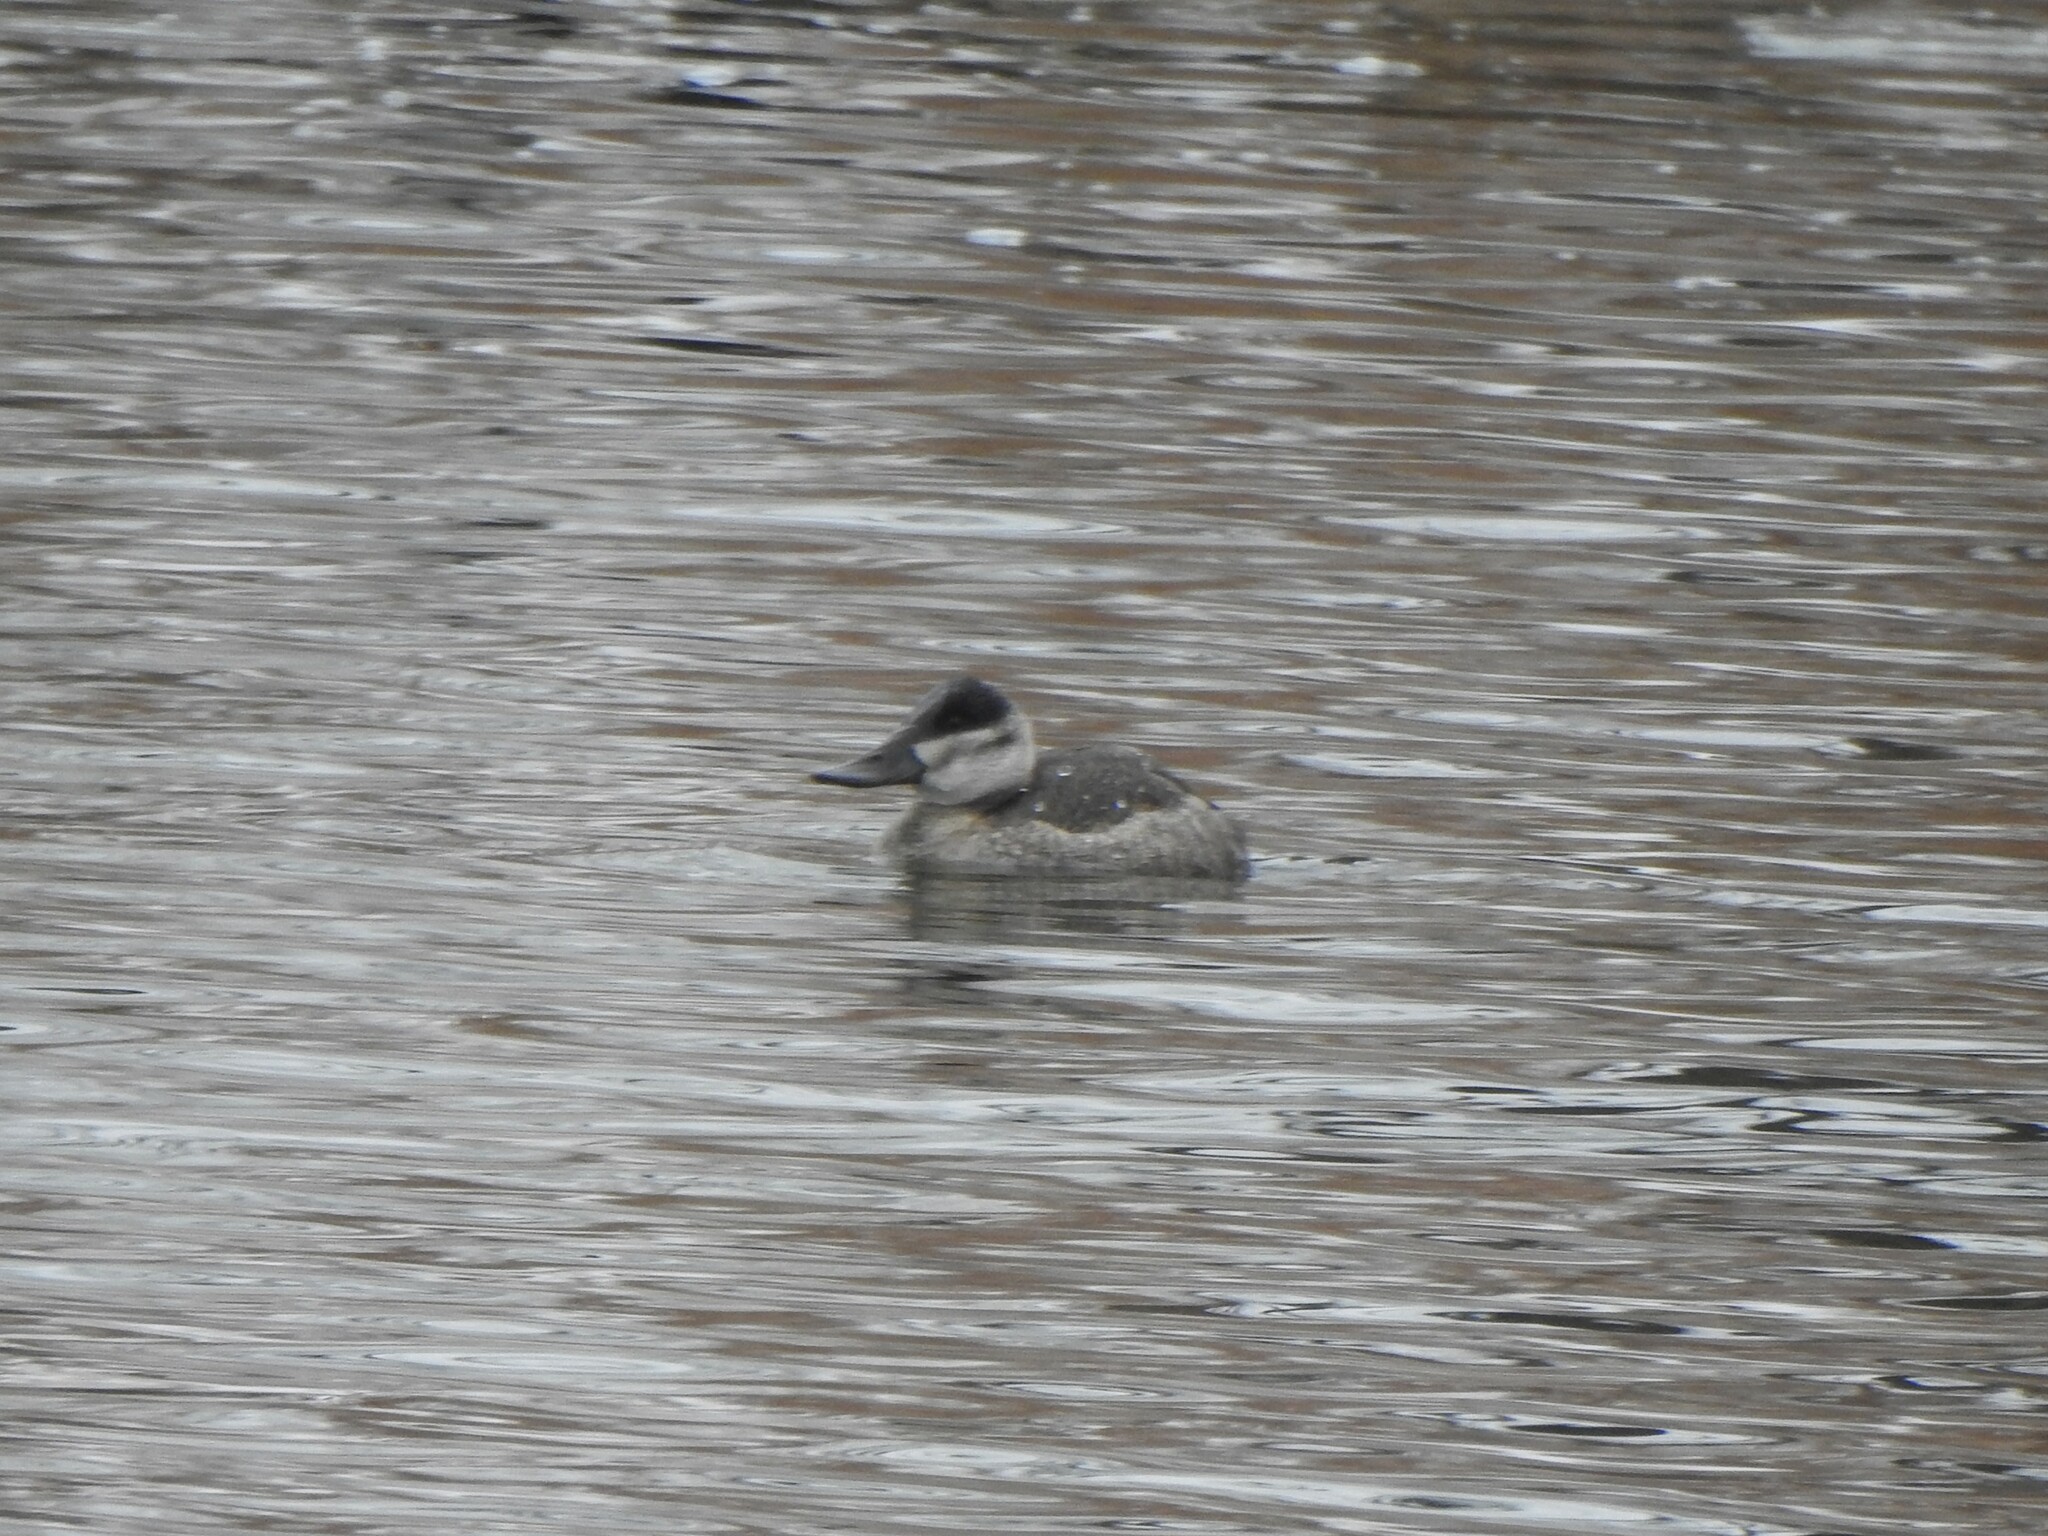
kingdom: Animalia
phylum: Chordata
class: Aves
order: Anseriformes
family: Anatidae
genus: Oxyura
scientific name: Oxyura jamaicensis
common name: Ruddy duck
